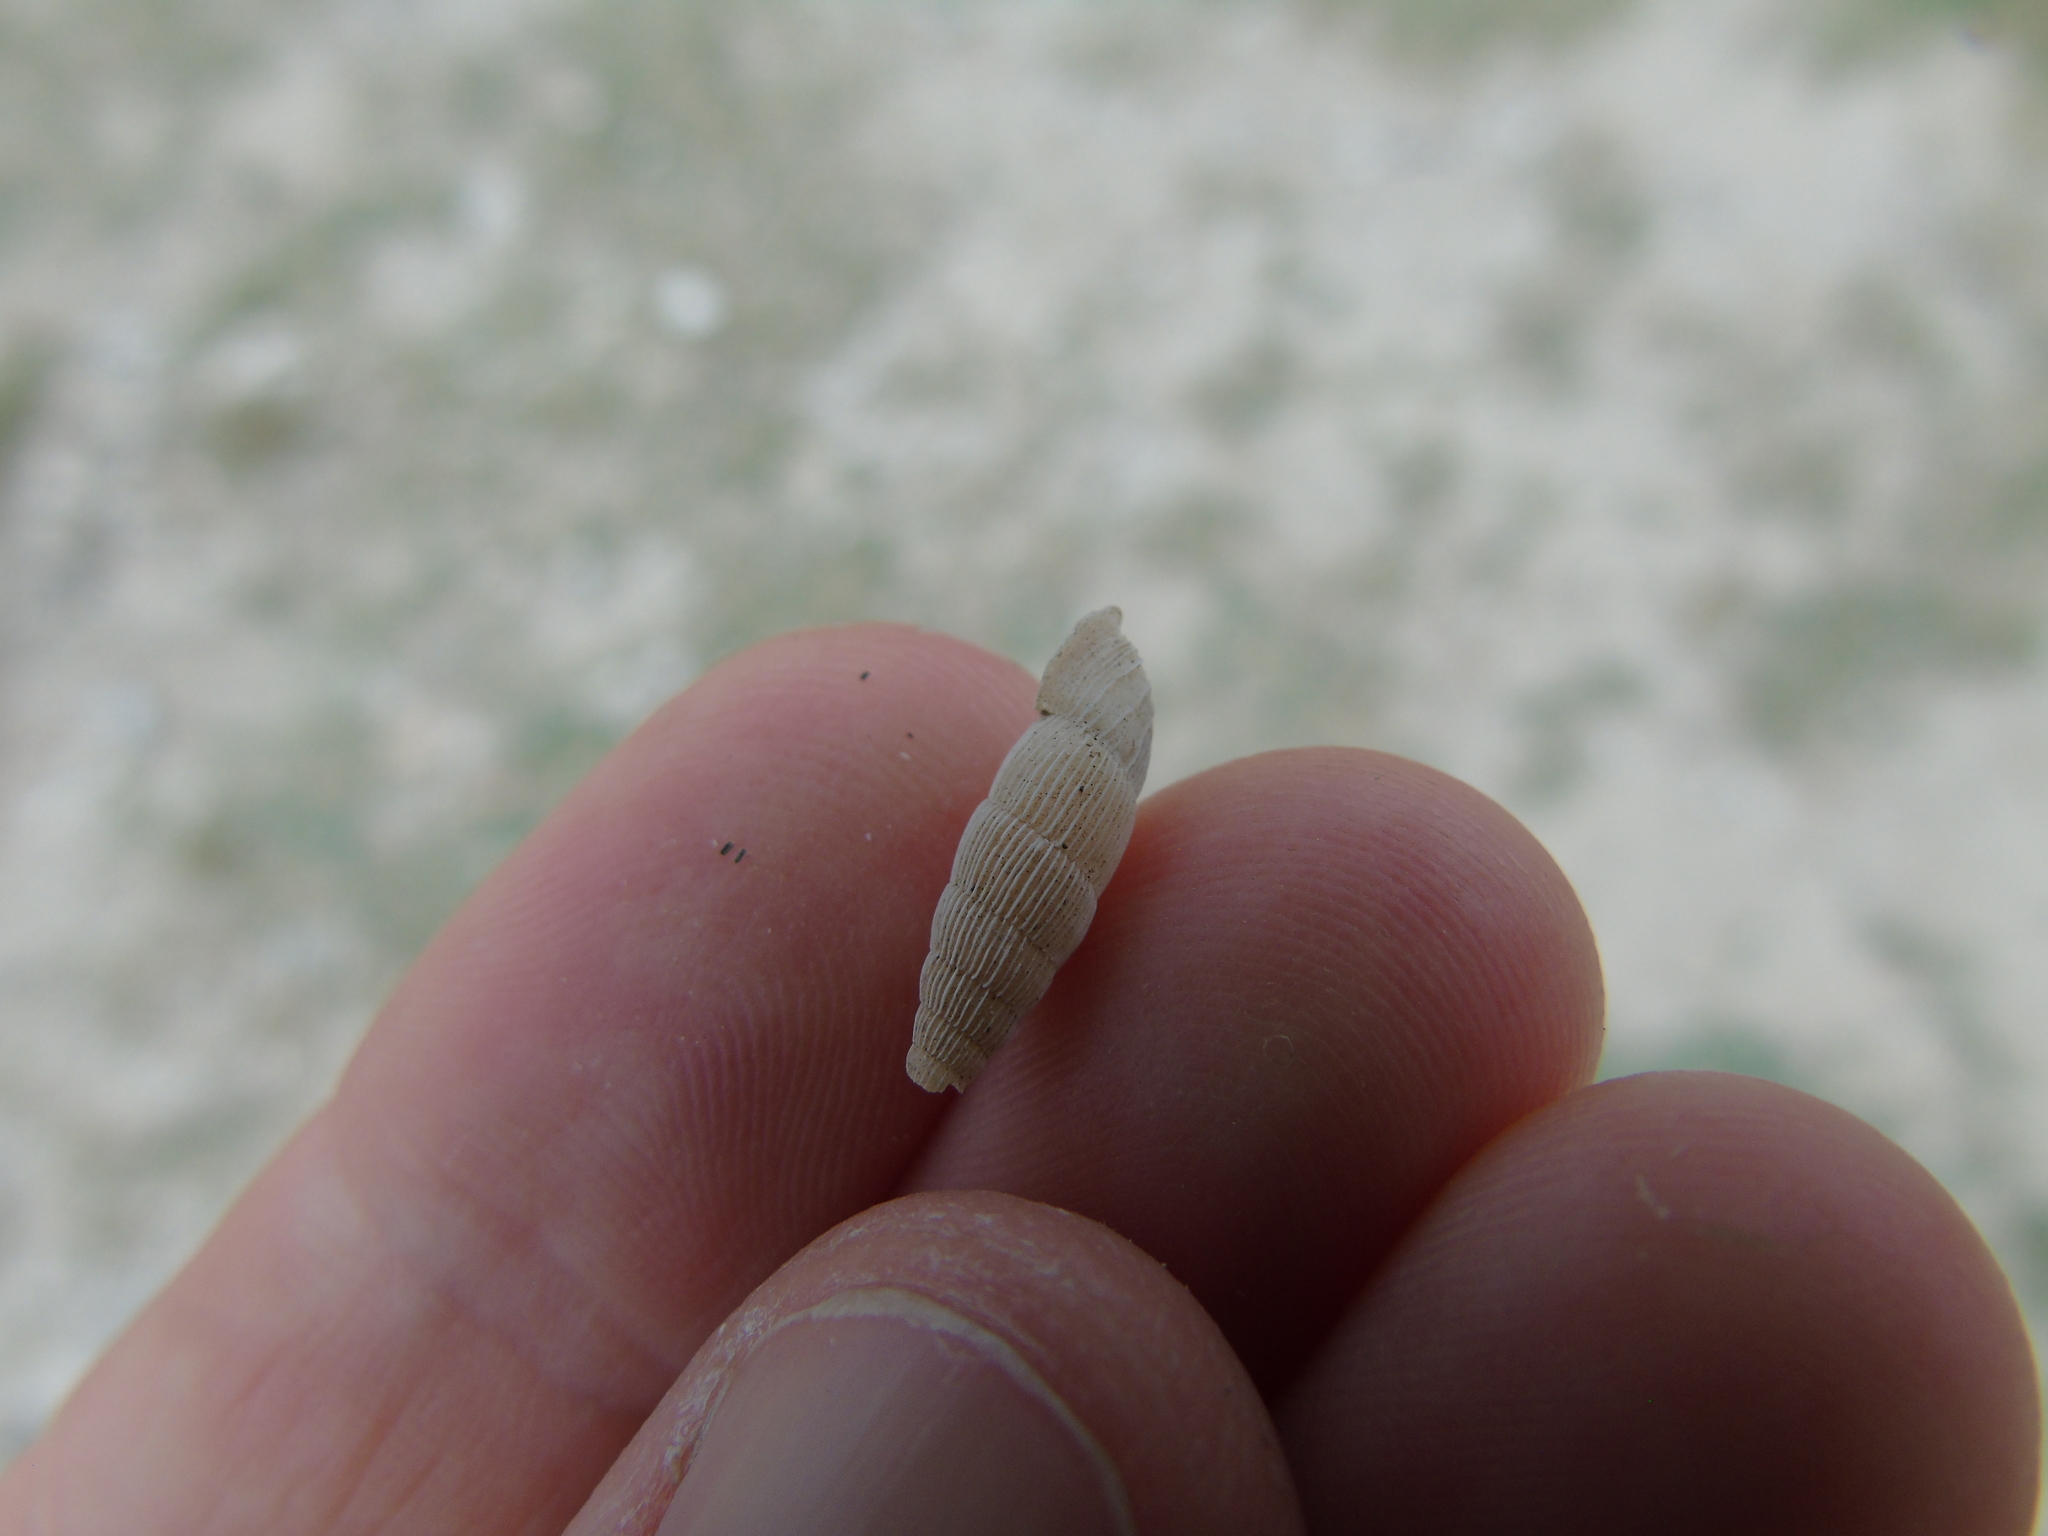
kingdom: Animalia
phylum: Mollusca
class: Gastropoda
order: Stylommatophora
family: Clausiliidae
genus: Muticaria
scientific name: Muticaria syracusana
